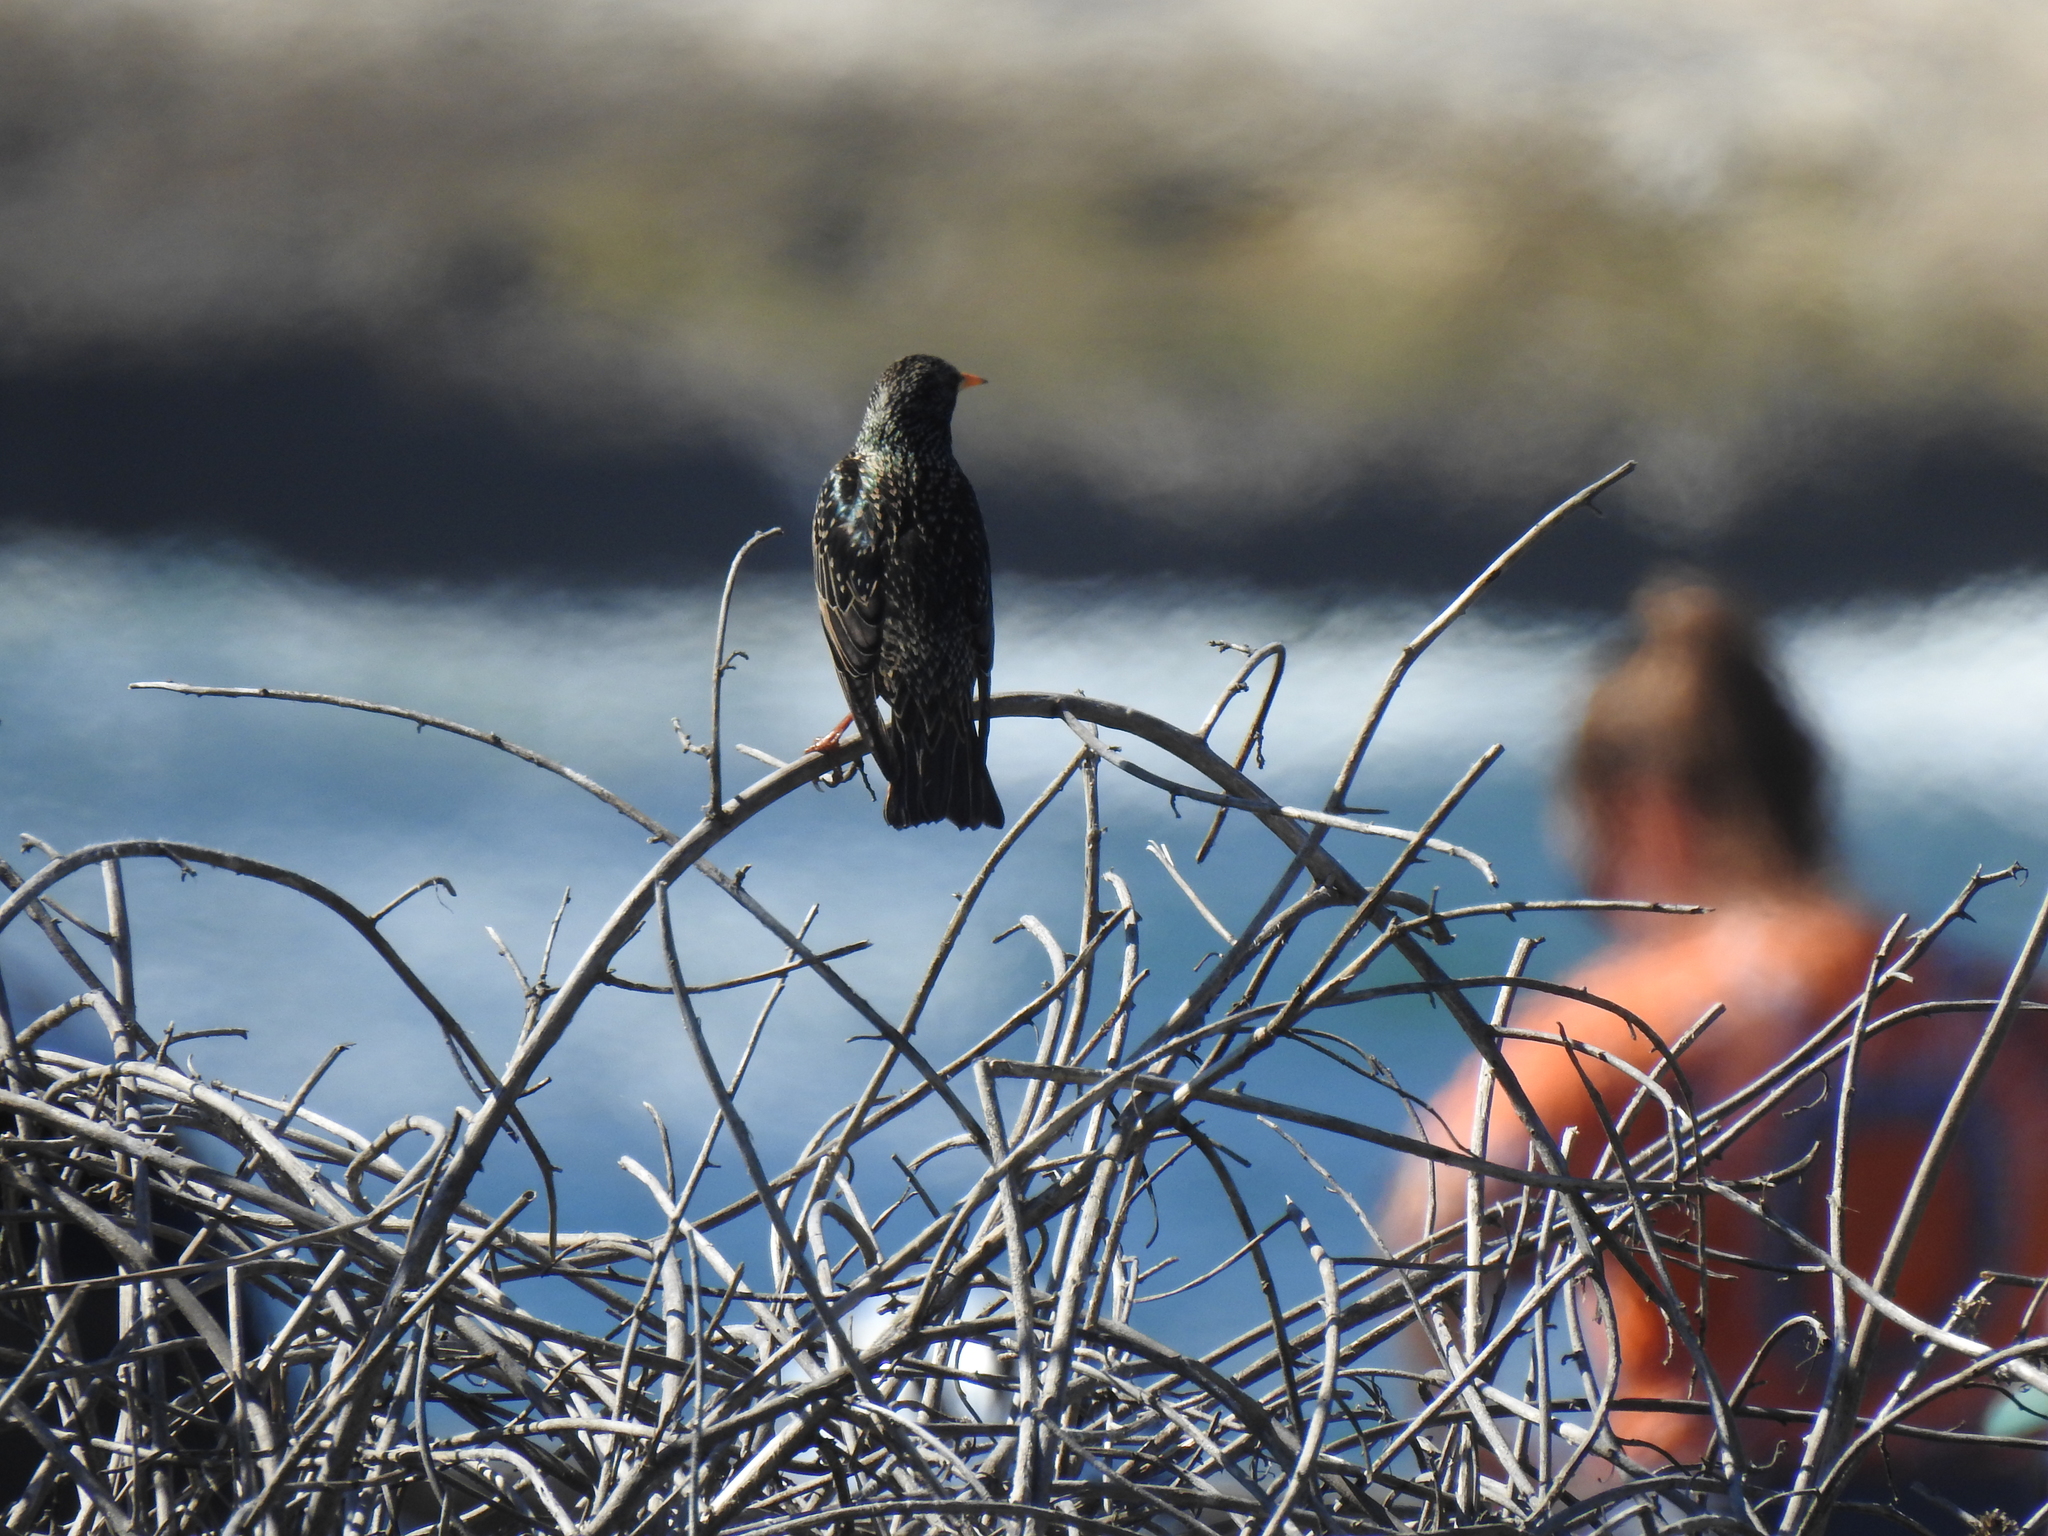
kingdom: Animalia
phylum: Chordata
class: Aves
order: Passeriformes
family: Sturnidae
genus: Sturnus
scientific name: Sturnus vulgaris
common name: Common starling
